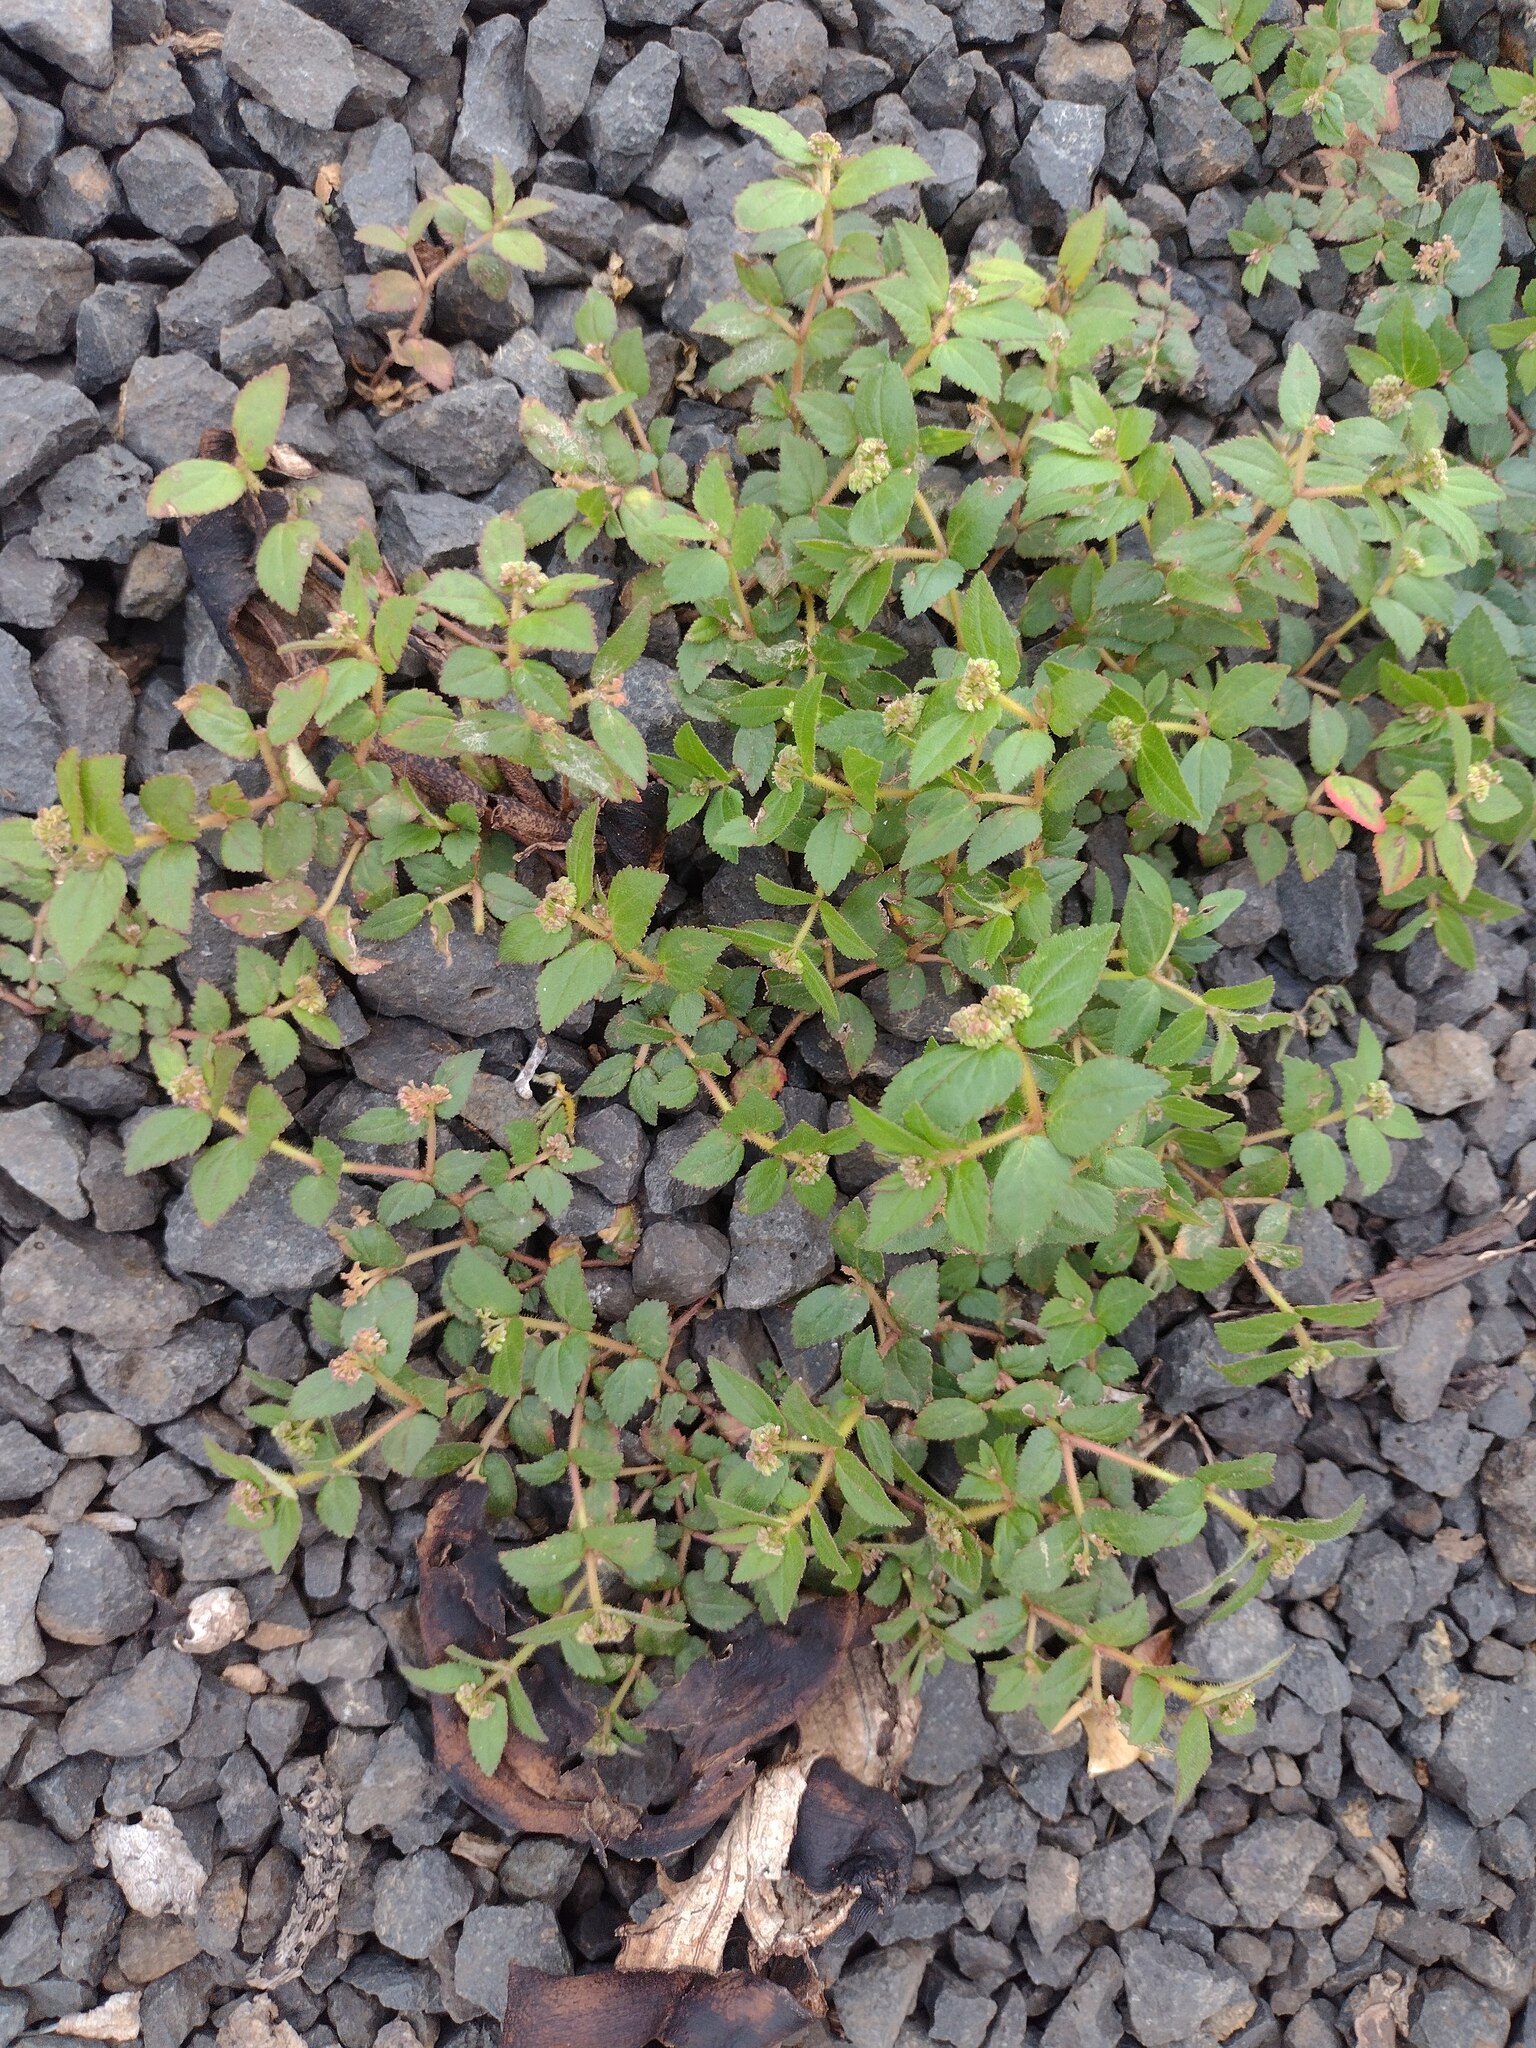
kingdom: Plantae
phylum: Tracheophyta
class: Magnoliopsida
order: Malpighiales
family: Euphorbiaceae
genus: Euphorbia
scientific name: Euphorbia ophthalmica
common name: Florida hammock sandmat
